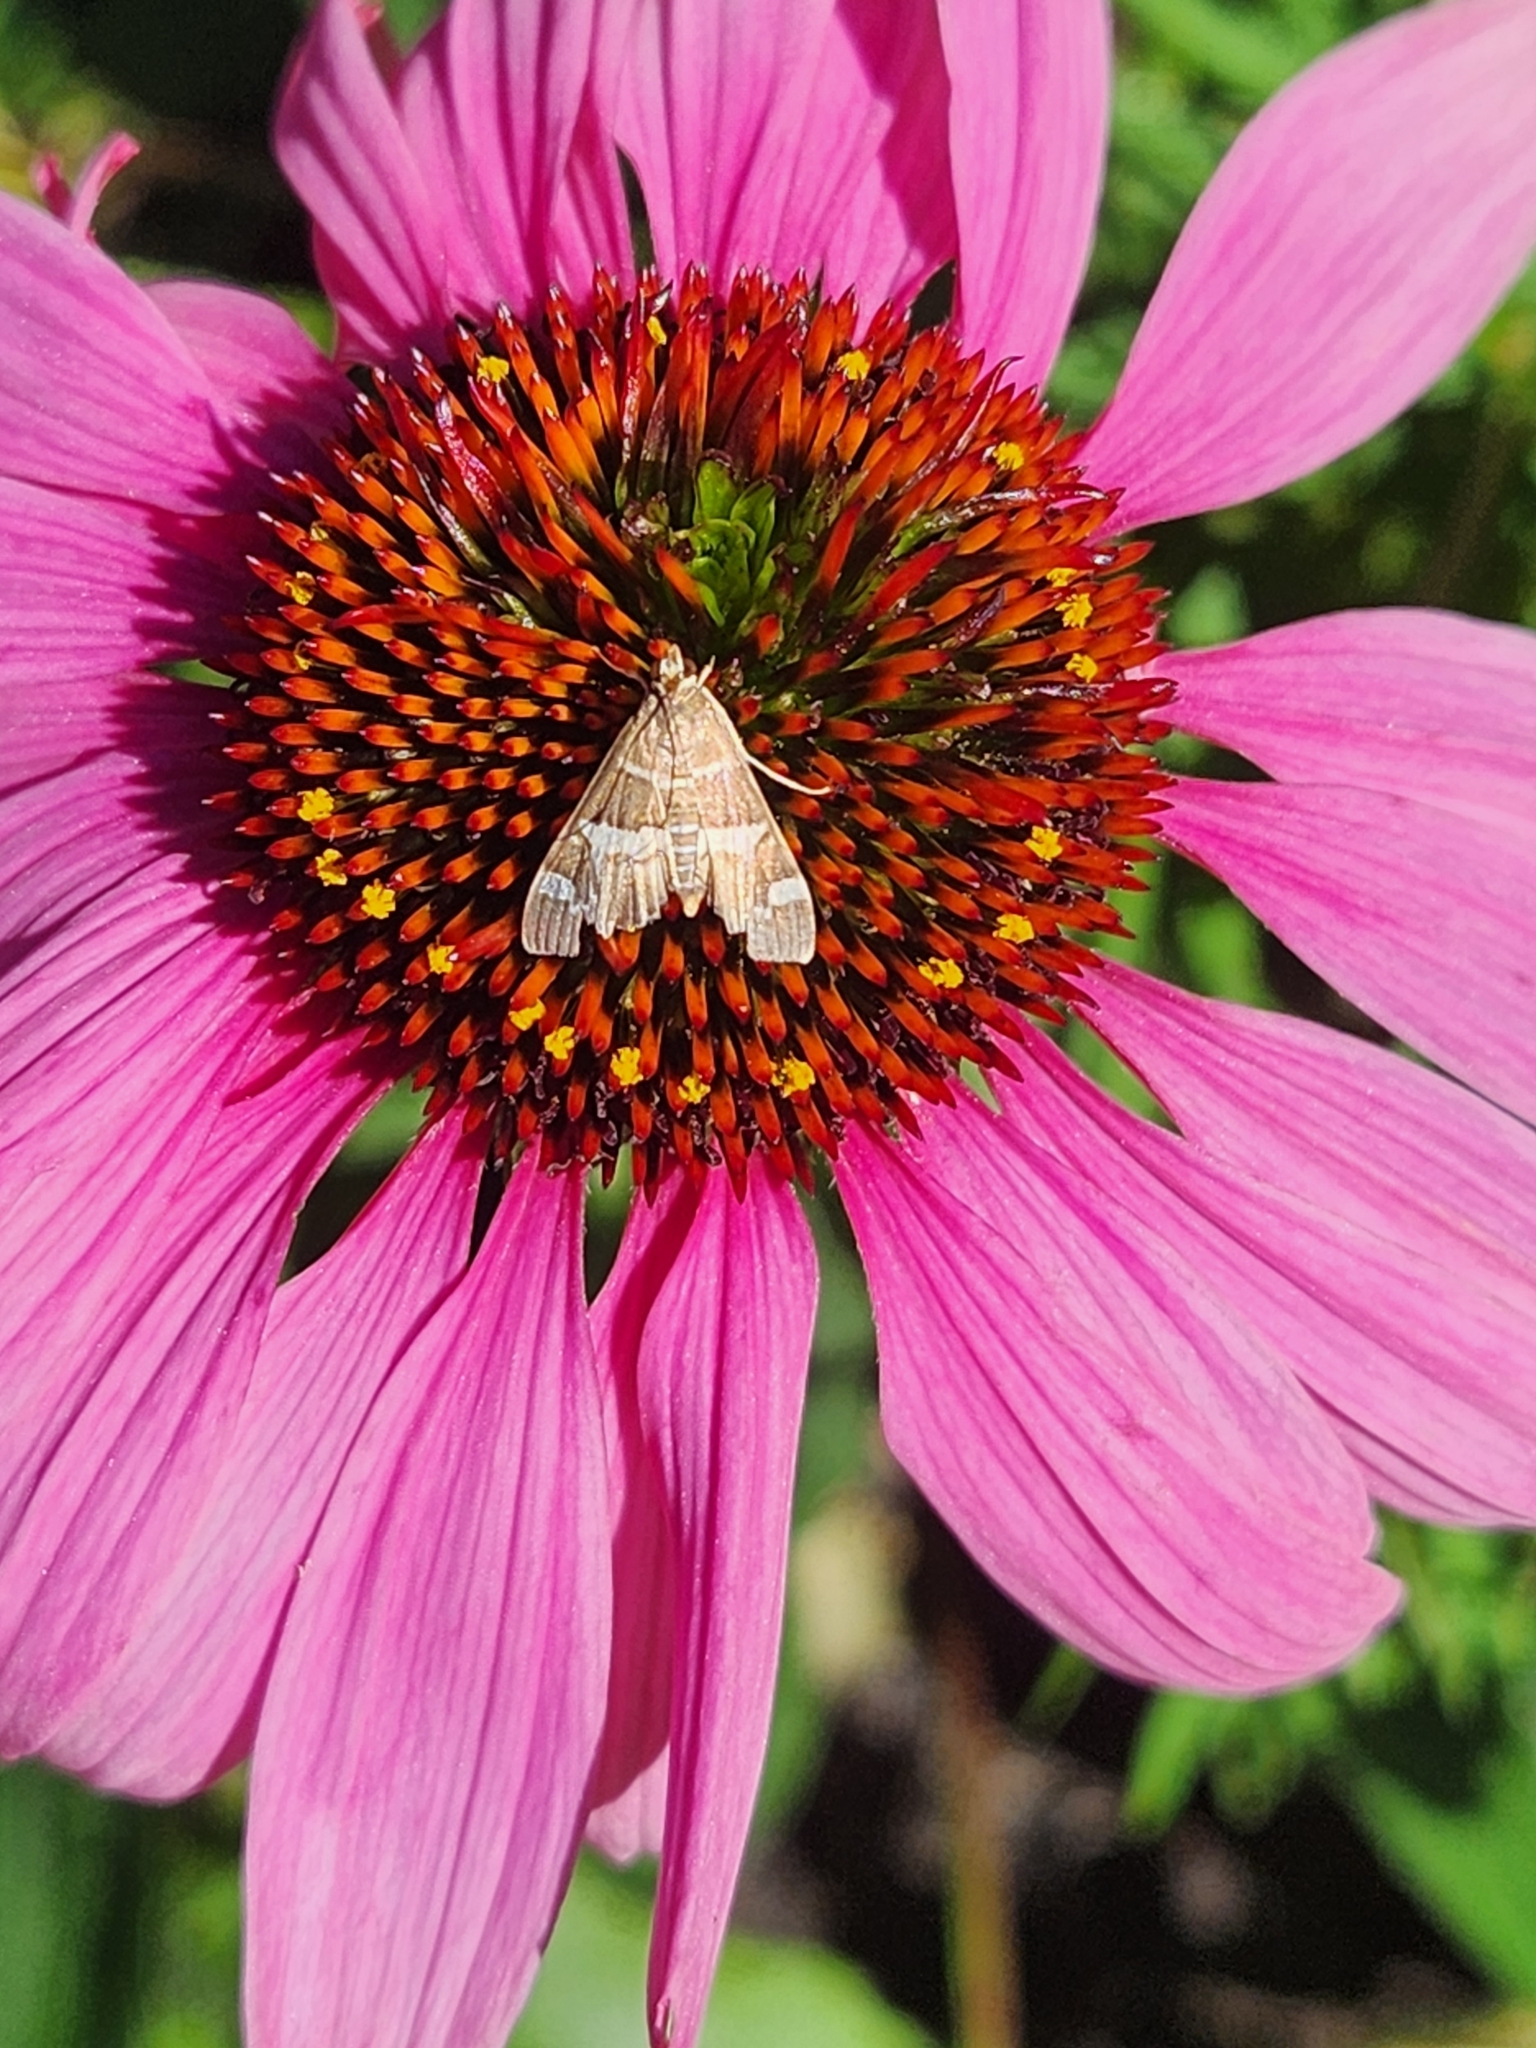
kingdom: Animalia
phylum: Arthropoda
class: Insecta
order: Lepidoptera
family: Crambidae
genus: Spoladea
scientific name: Spoladea recurvalis
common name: Beet webworm moth
